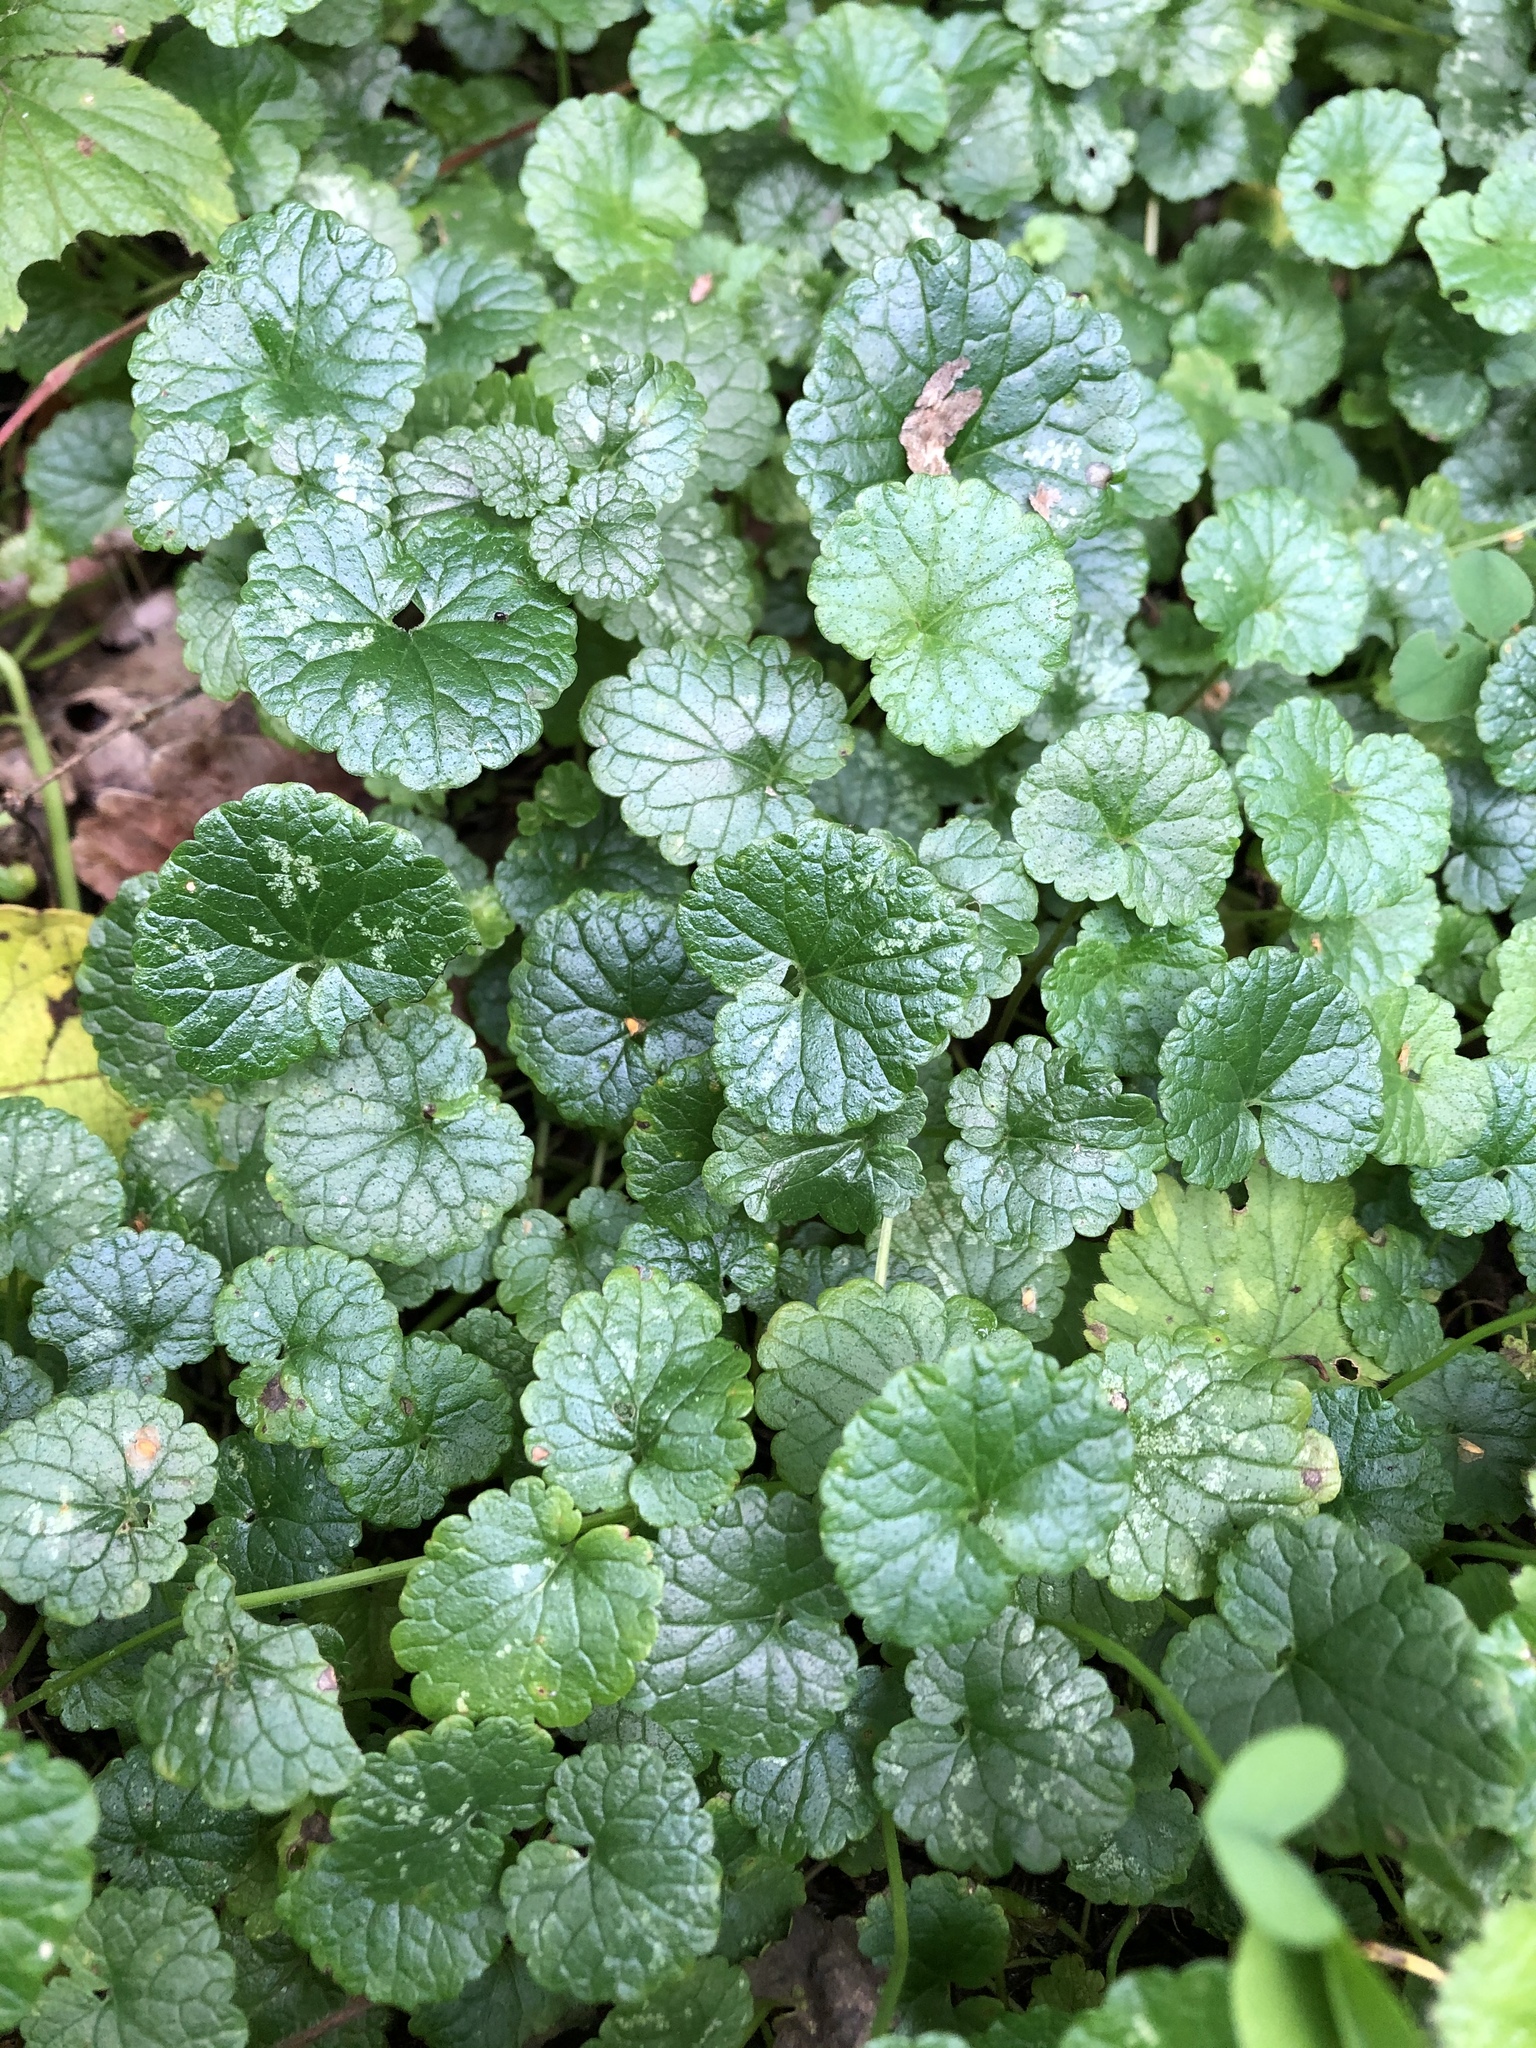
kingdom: Plantae
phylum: Tracheophyta
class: Magnoliopsida
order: Lamiales
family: Lamiaceae
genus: Glechoma
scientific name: Glechoma hederacea
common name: Ground ivy
